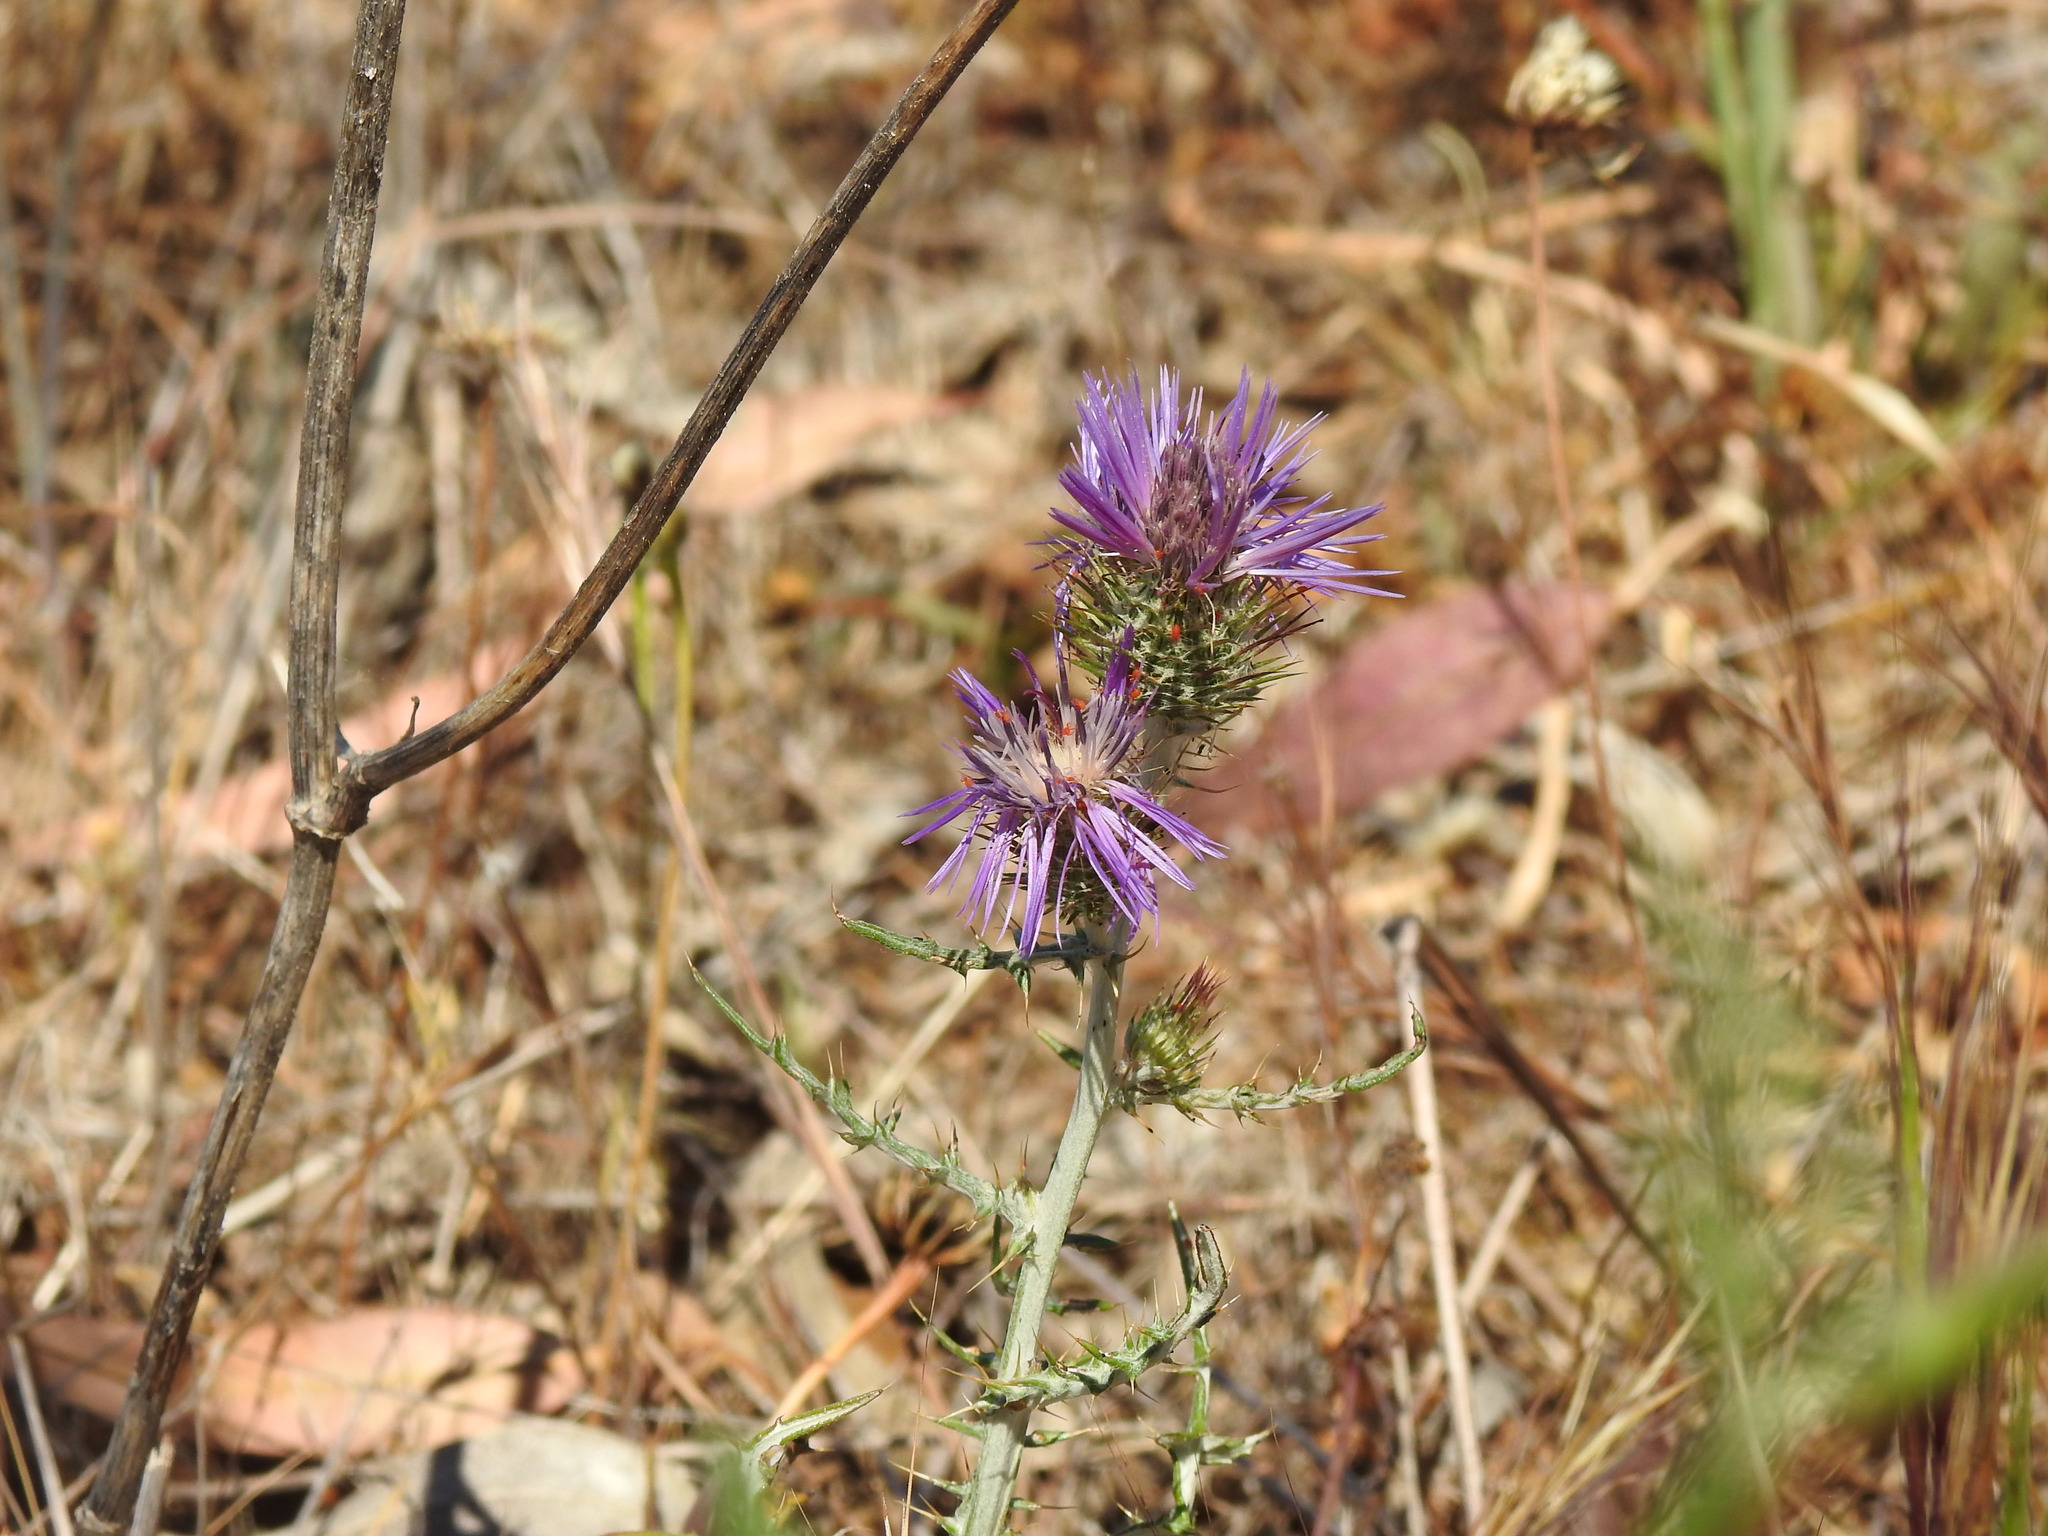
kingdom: Plantae
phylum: Tracheophyta
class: Magnoliopsida
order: Asterales
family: Asteraceae
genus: Galactites
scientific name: Galactites tomentosa
